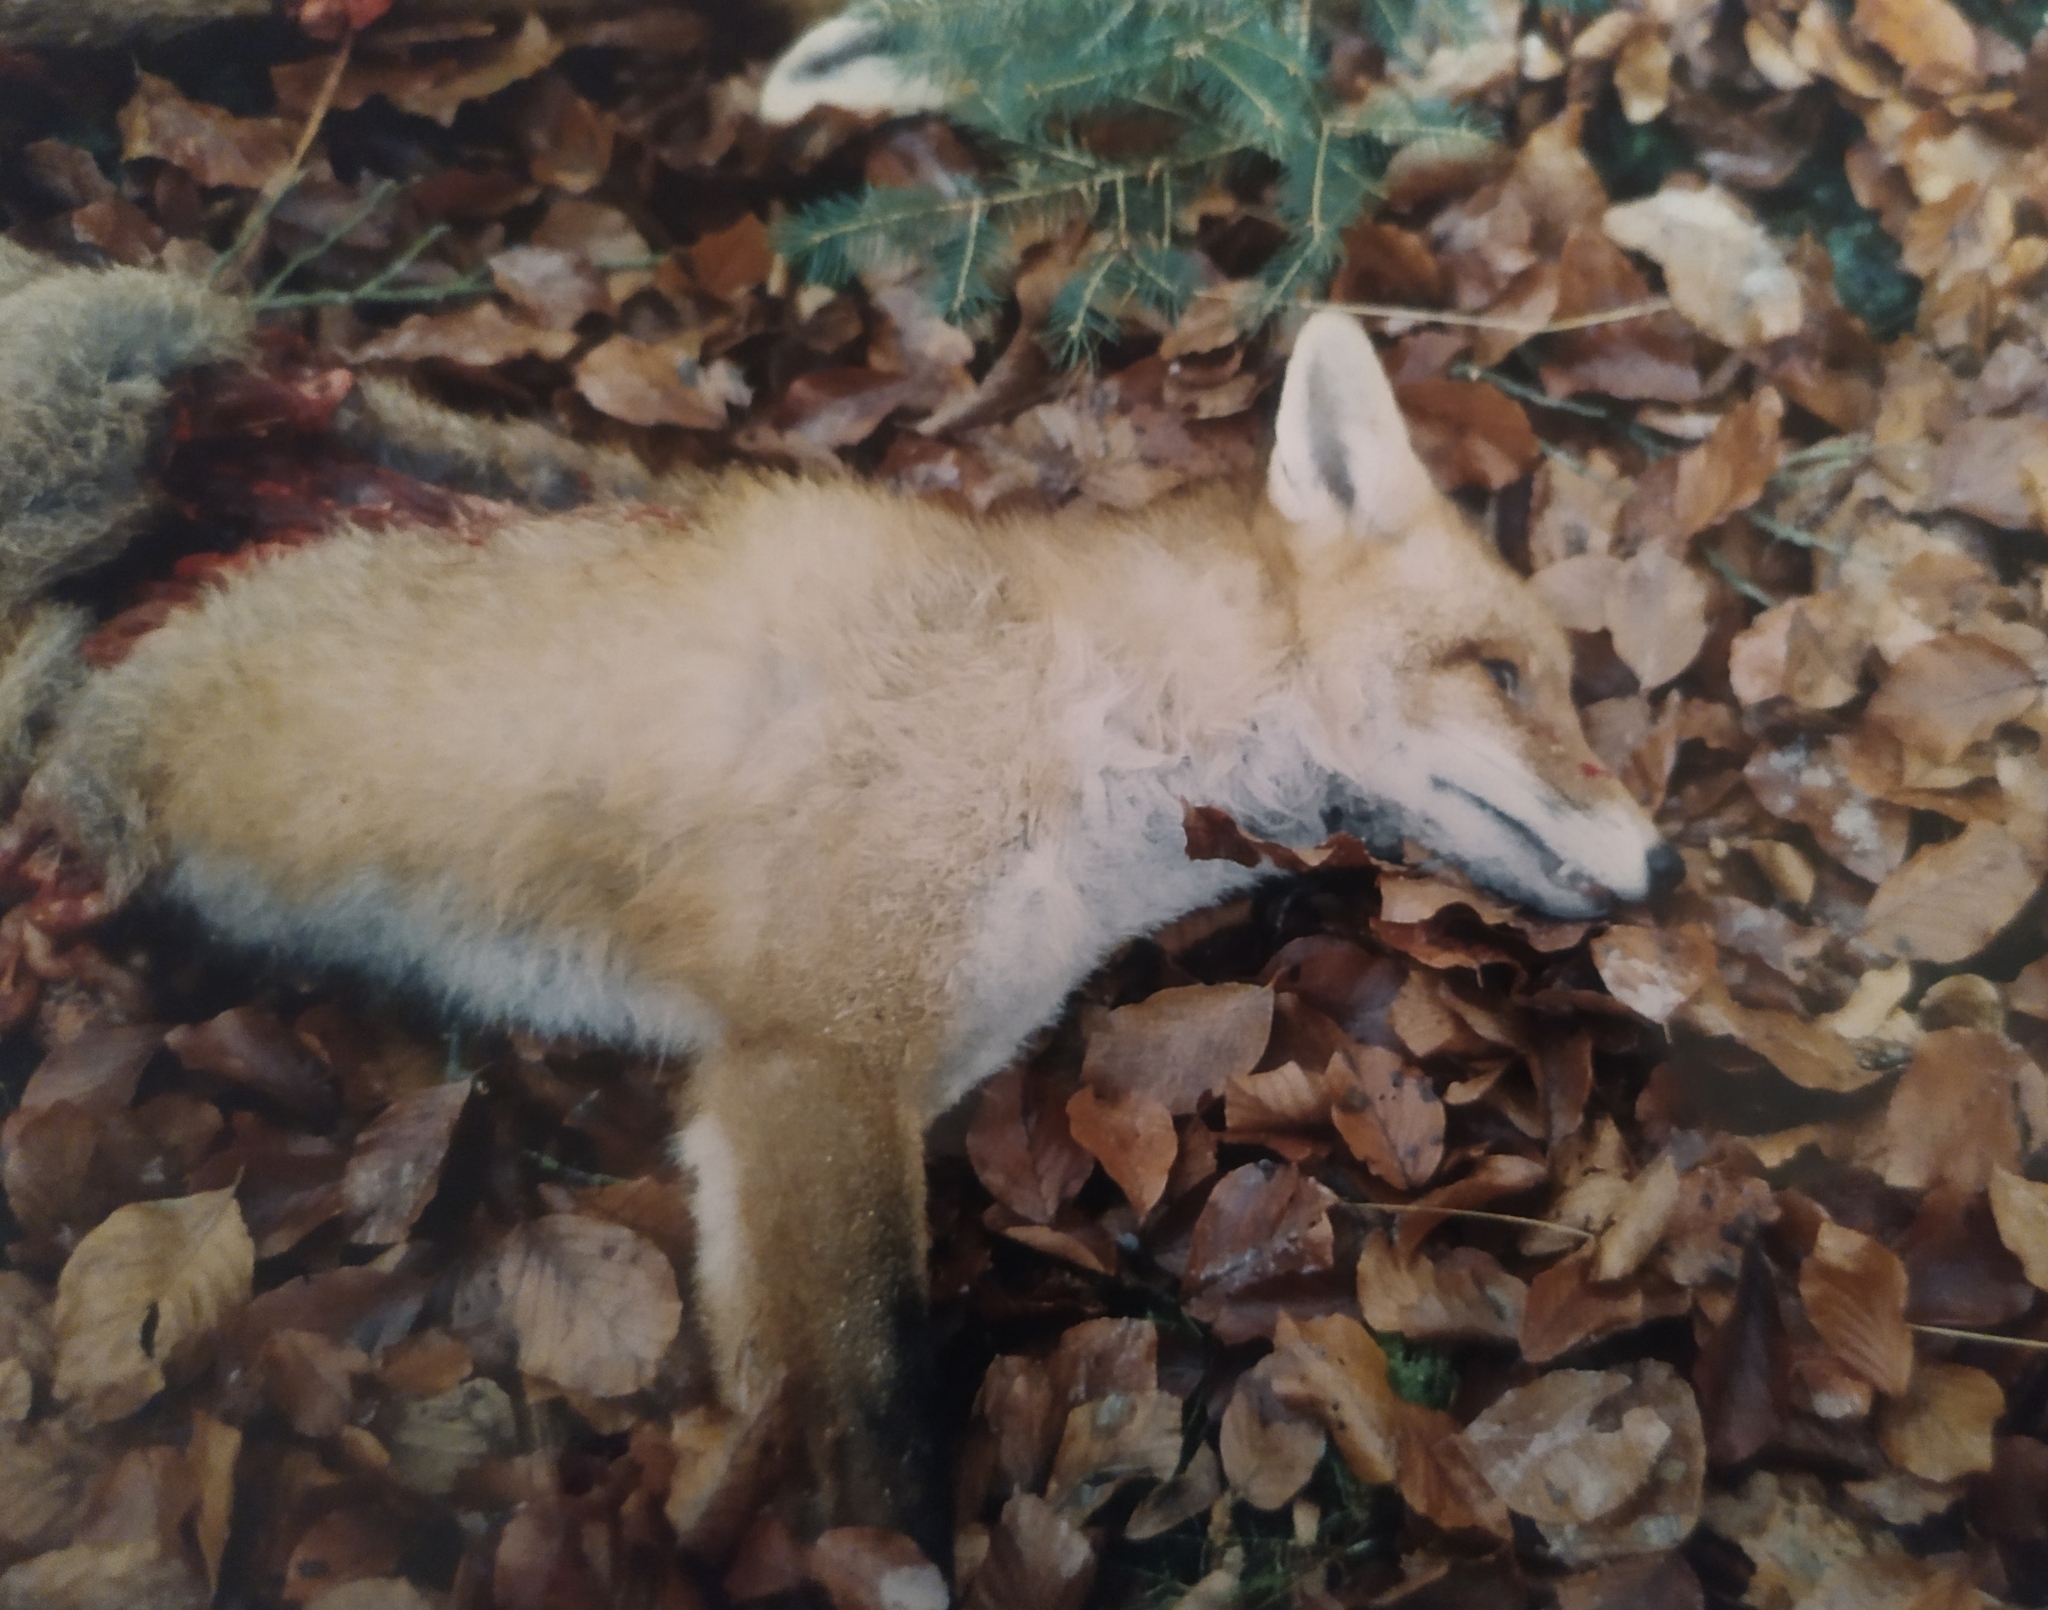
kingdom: Animalia
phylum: Chordata
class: Mammalia
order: Carnivora
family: Canidae
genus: Vulpes
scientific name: Vulpes vulpes
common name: Red fox
